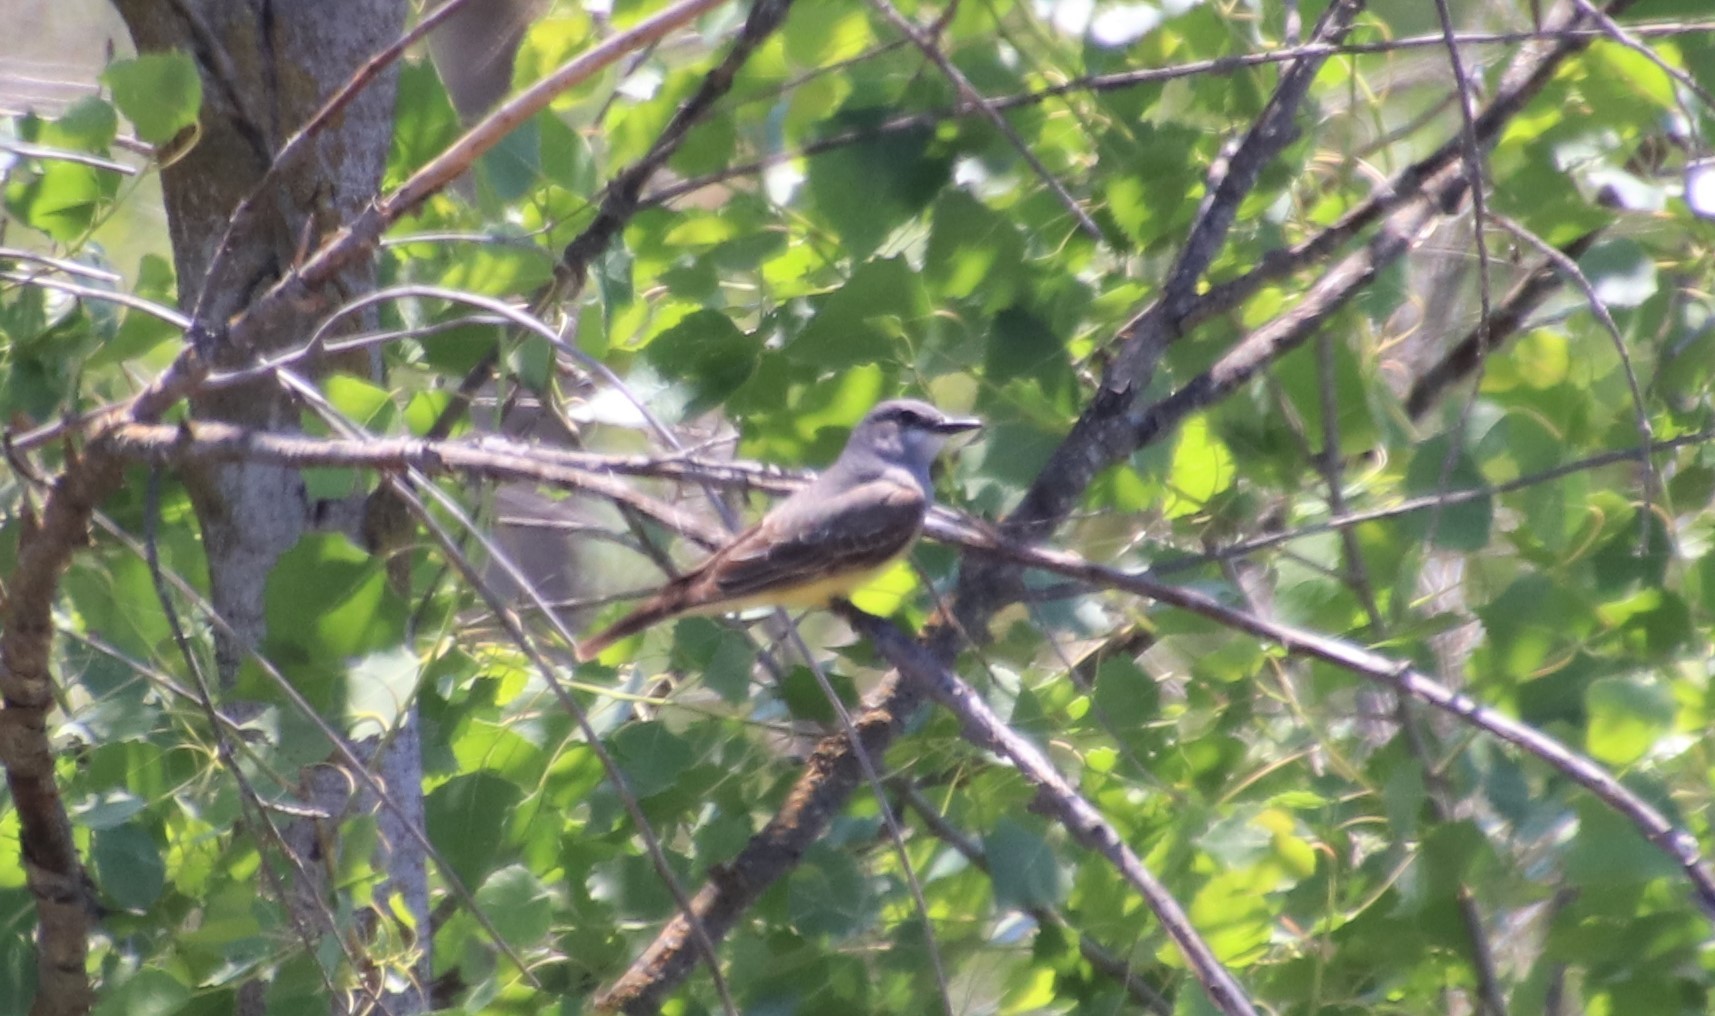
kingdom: Animalia
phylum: Chordata
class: Aves
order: Passeriformes
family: Tyrannidae
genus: Tyrannus
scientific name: Tyrannus vociferans
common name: Cassin's kingbird
